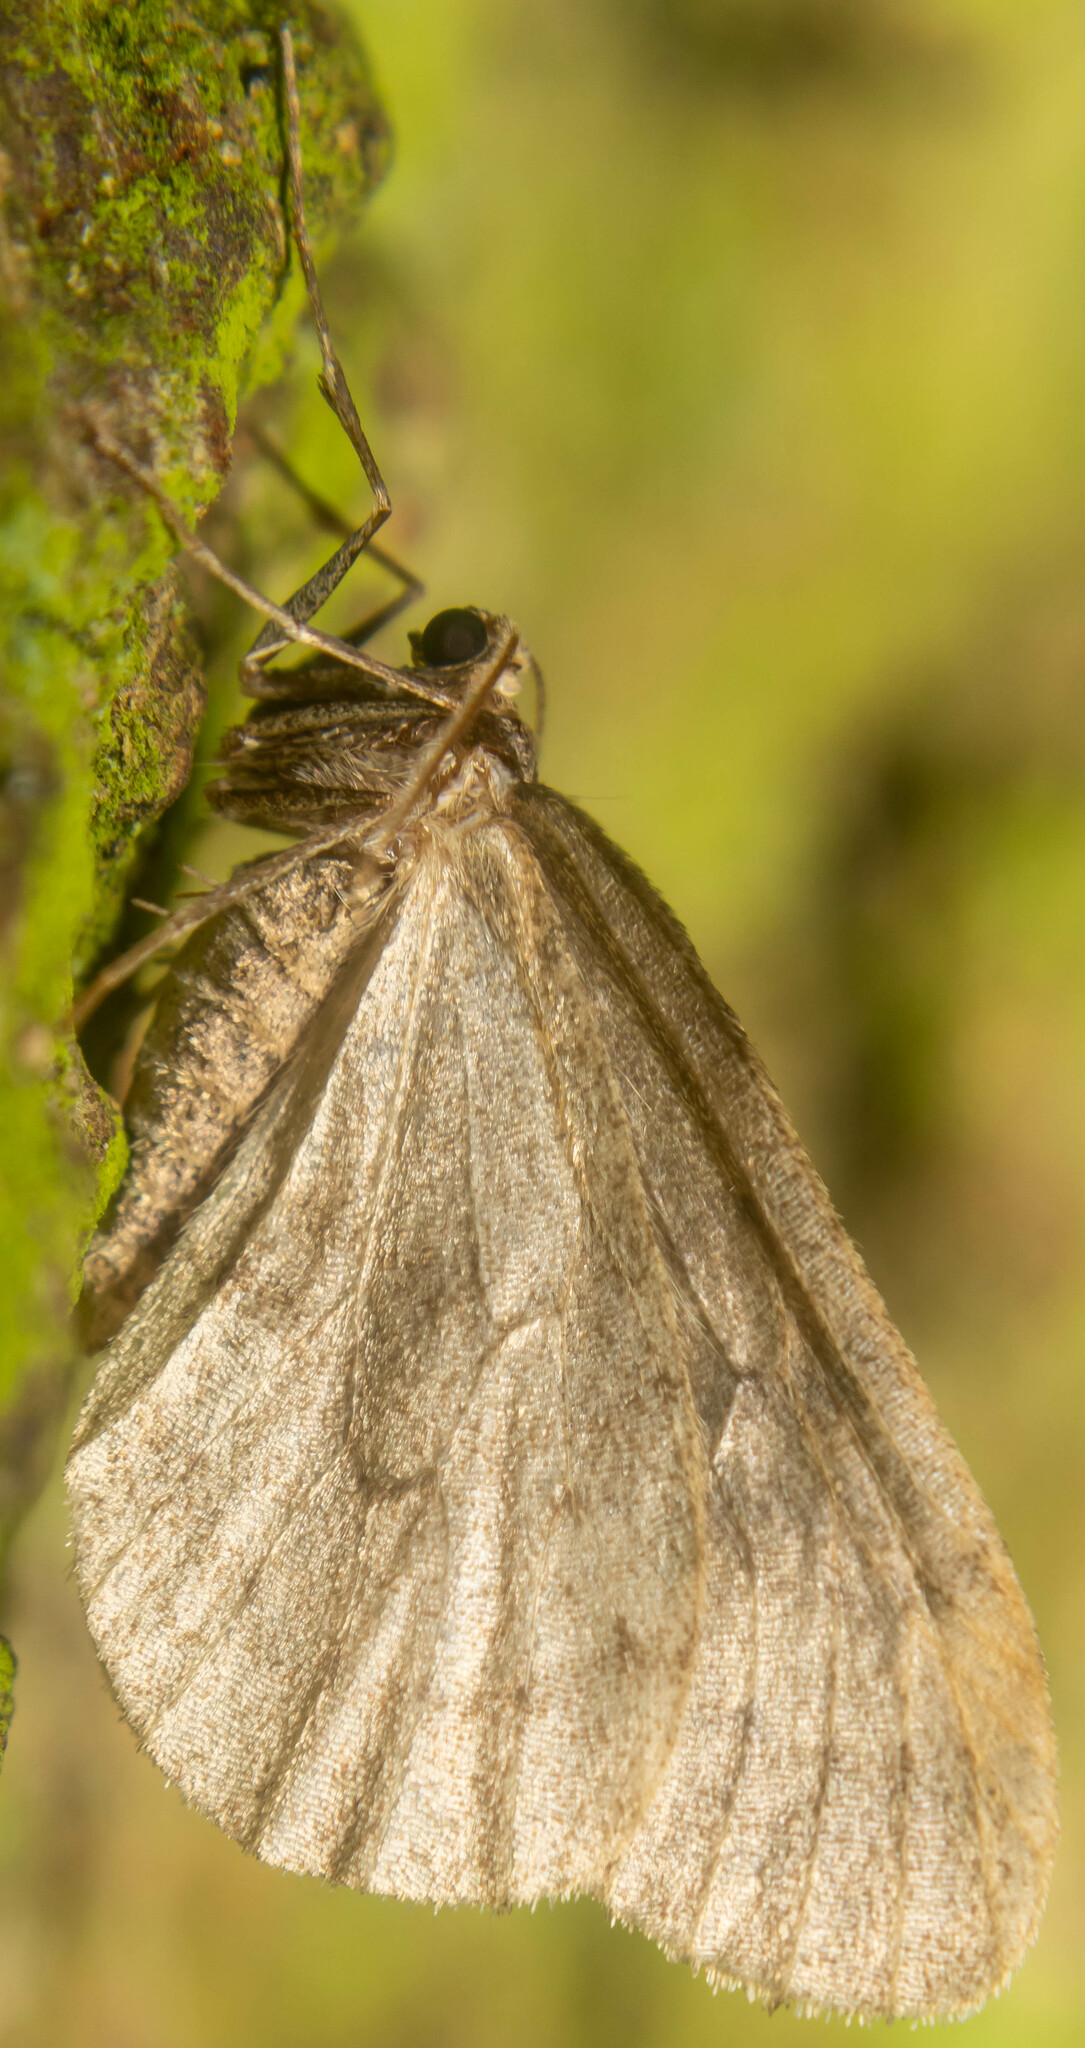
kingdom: Animalia
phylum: Arthropoda
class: Insecta
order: Lepidoptera
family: Geometridae
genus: Operophtera
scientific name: Operophtera brumata
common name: Winter moth
